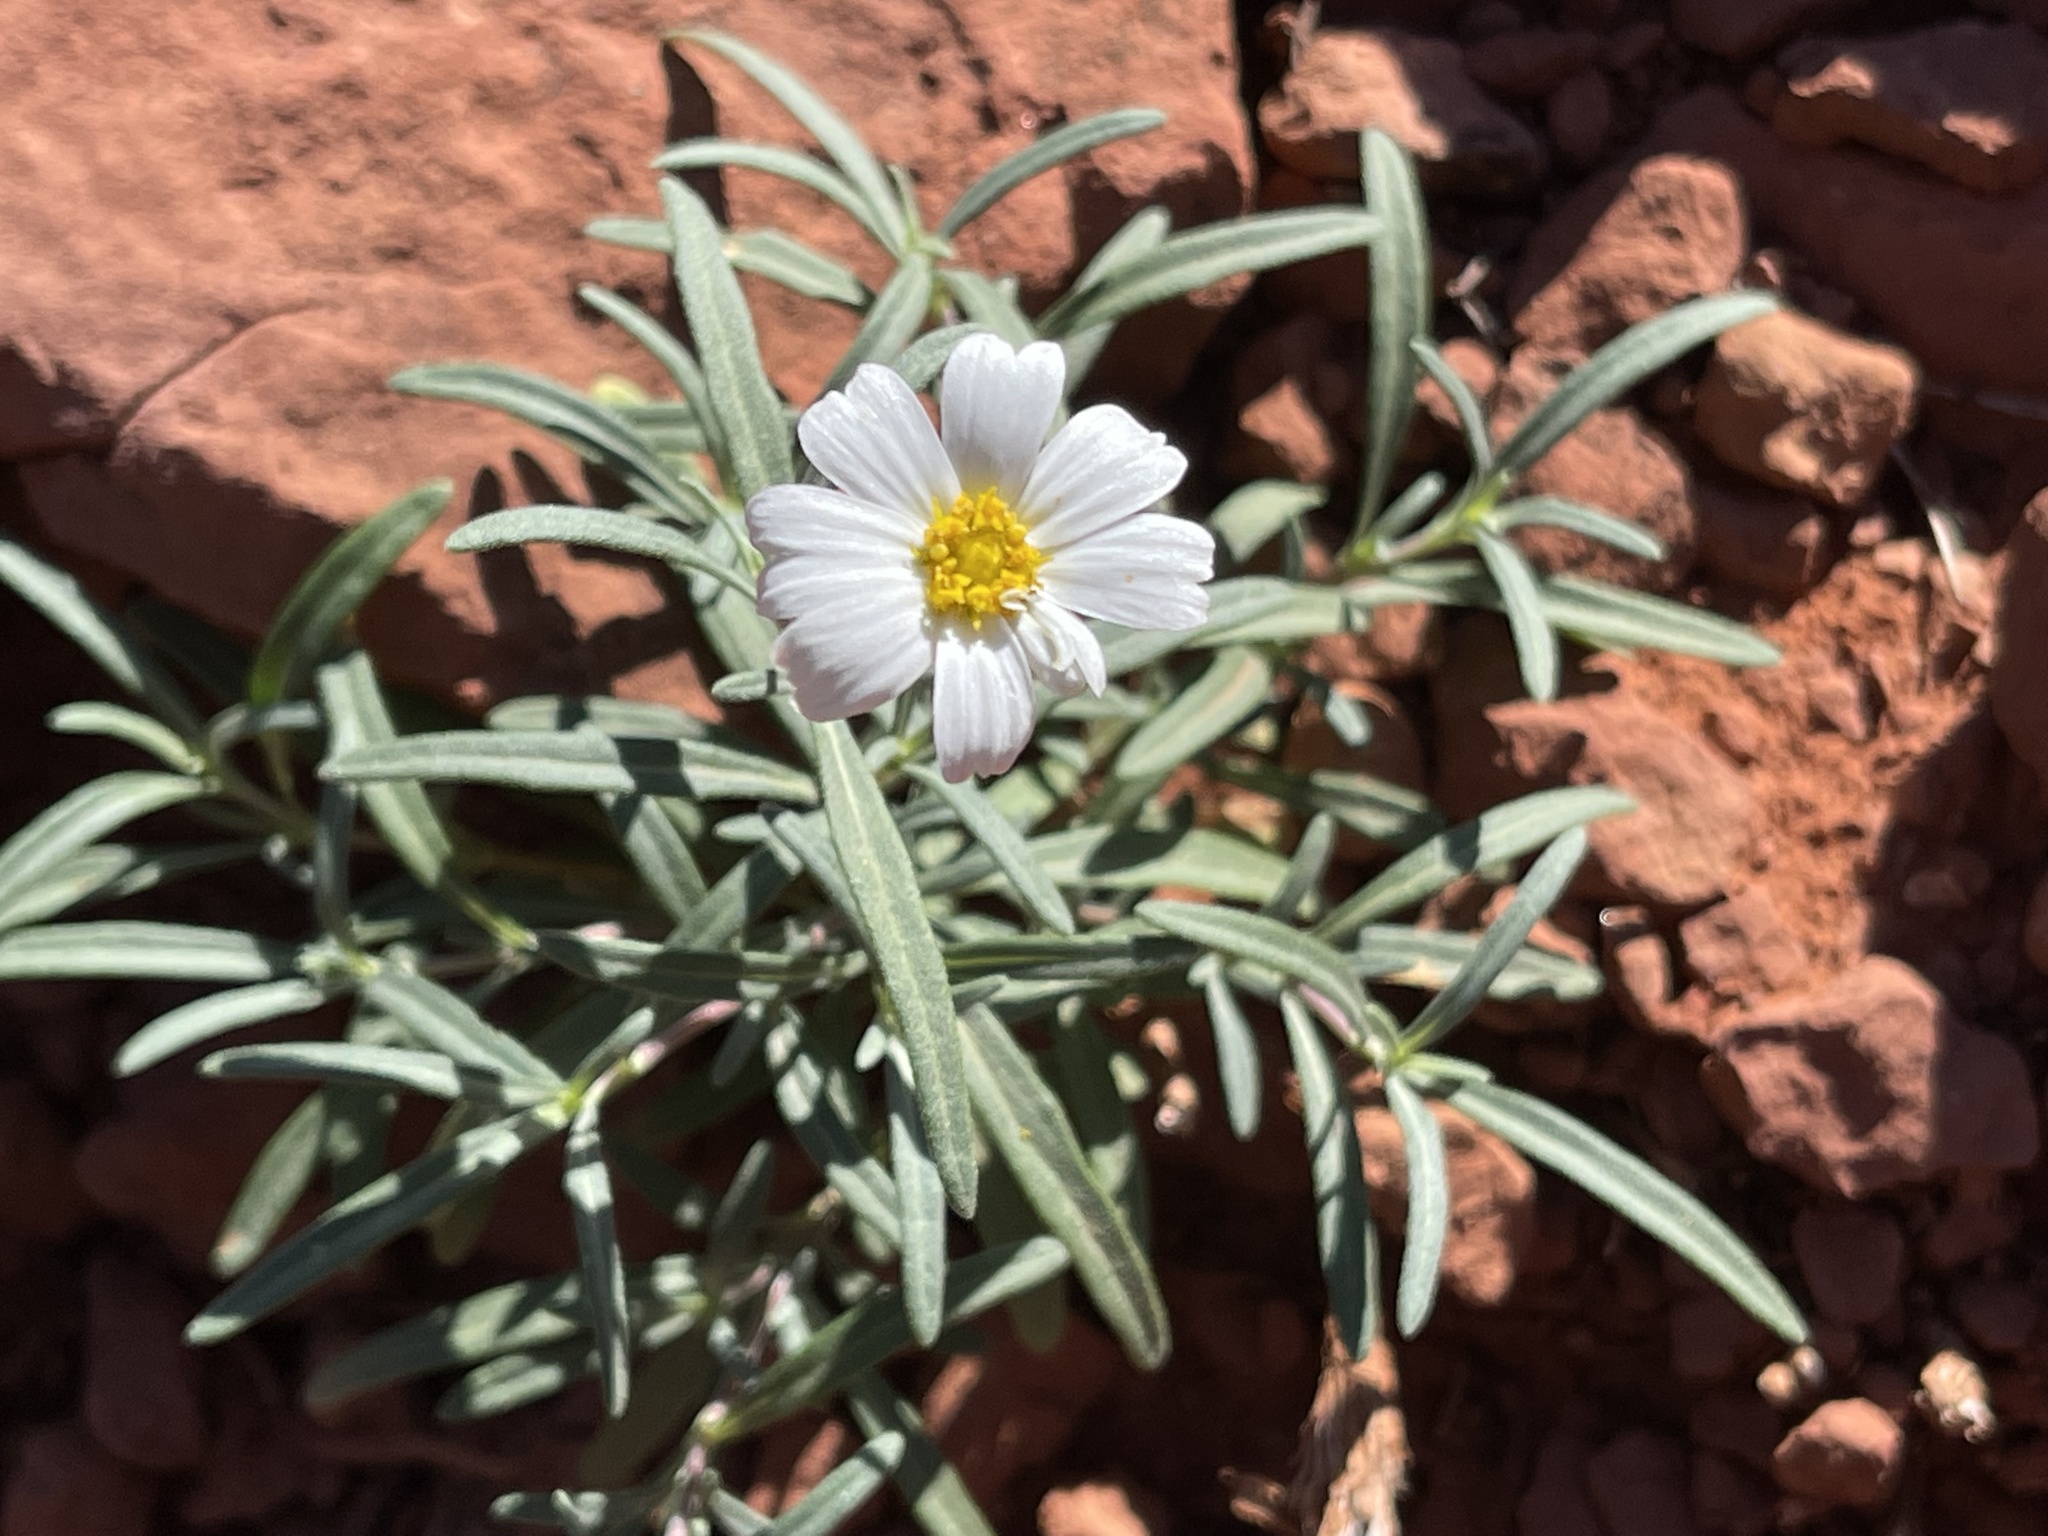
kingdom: Plantae
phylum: Tracheophyta
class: Magnoliopsida
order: Asterales
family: Asteraceae
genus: Melampodium
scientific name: Melampodium leucanthum
